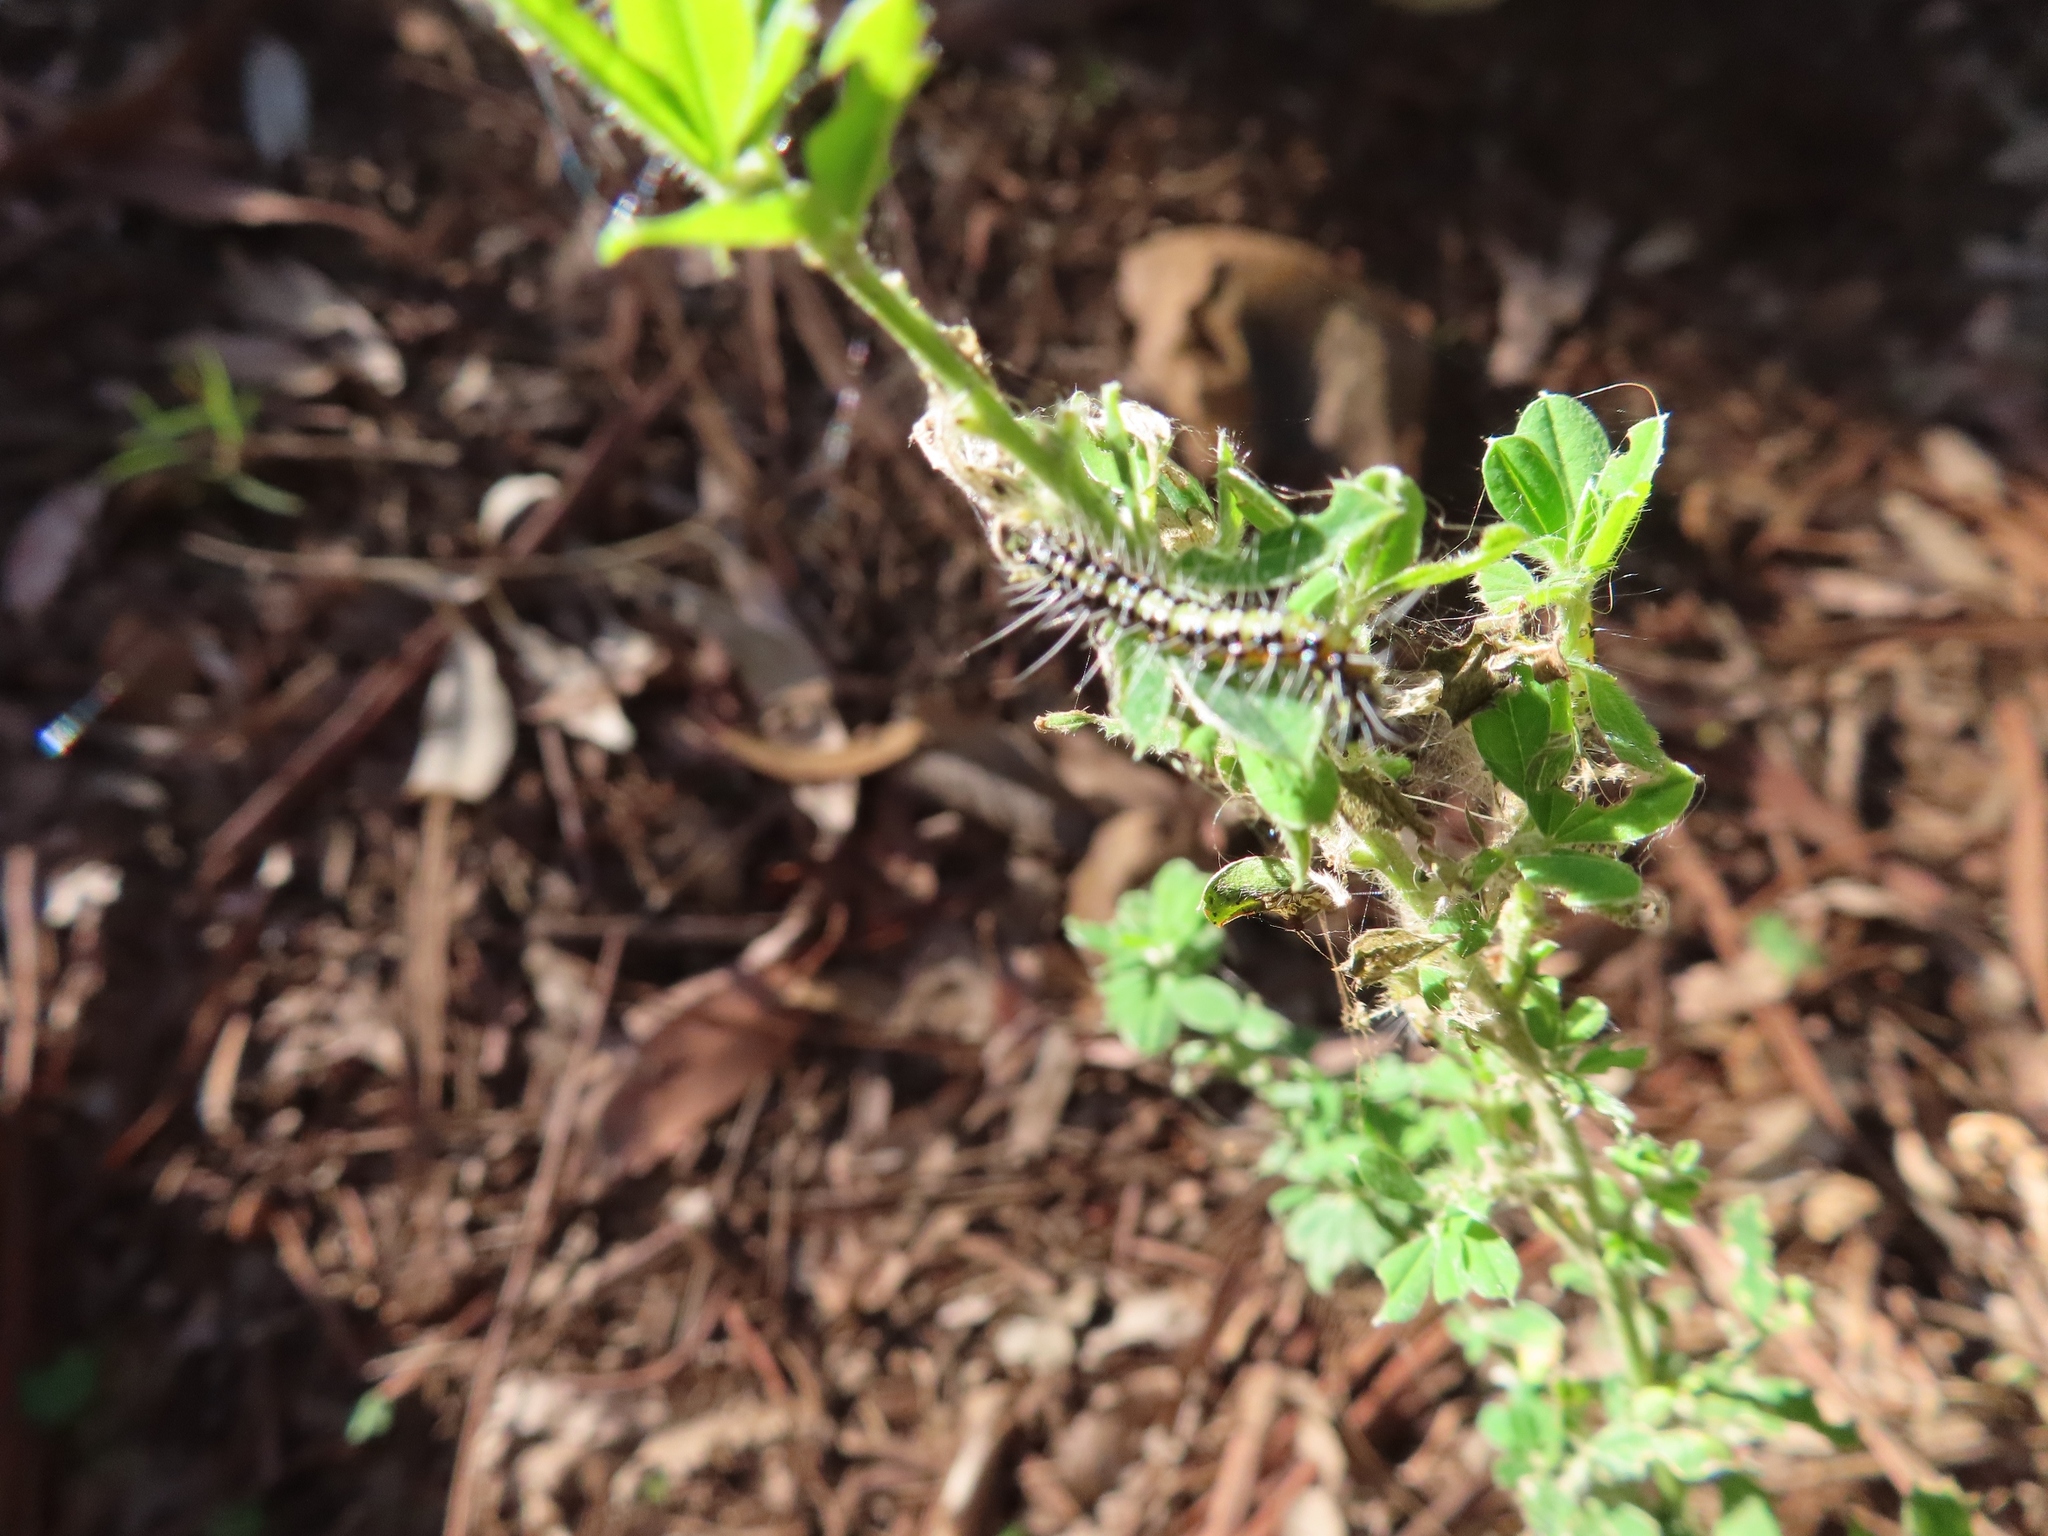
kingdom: Animalia
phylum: Arthropoda
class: Insecta
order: Lepidoptera
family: Erebidae
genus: Utetheisa
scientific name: Utetheisa pulchella
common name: Crimson speckled
